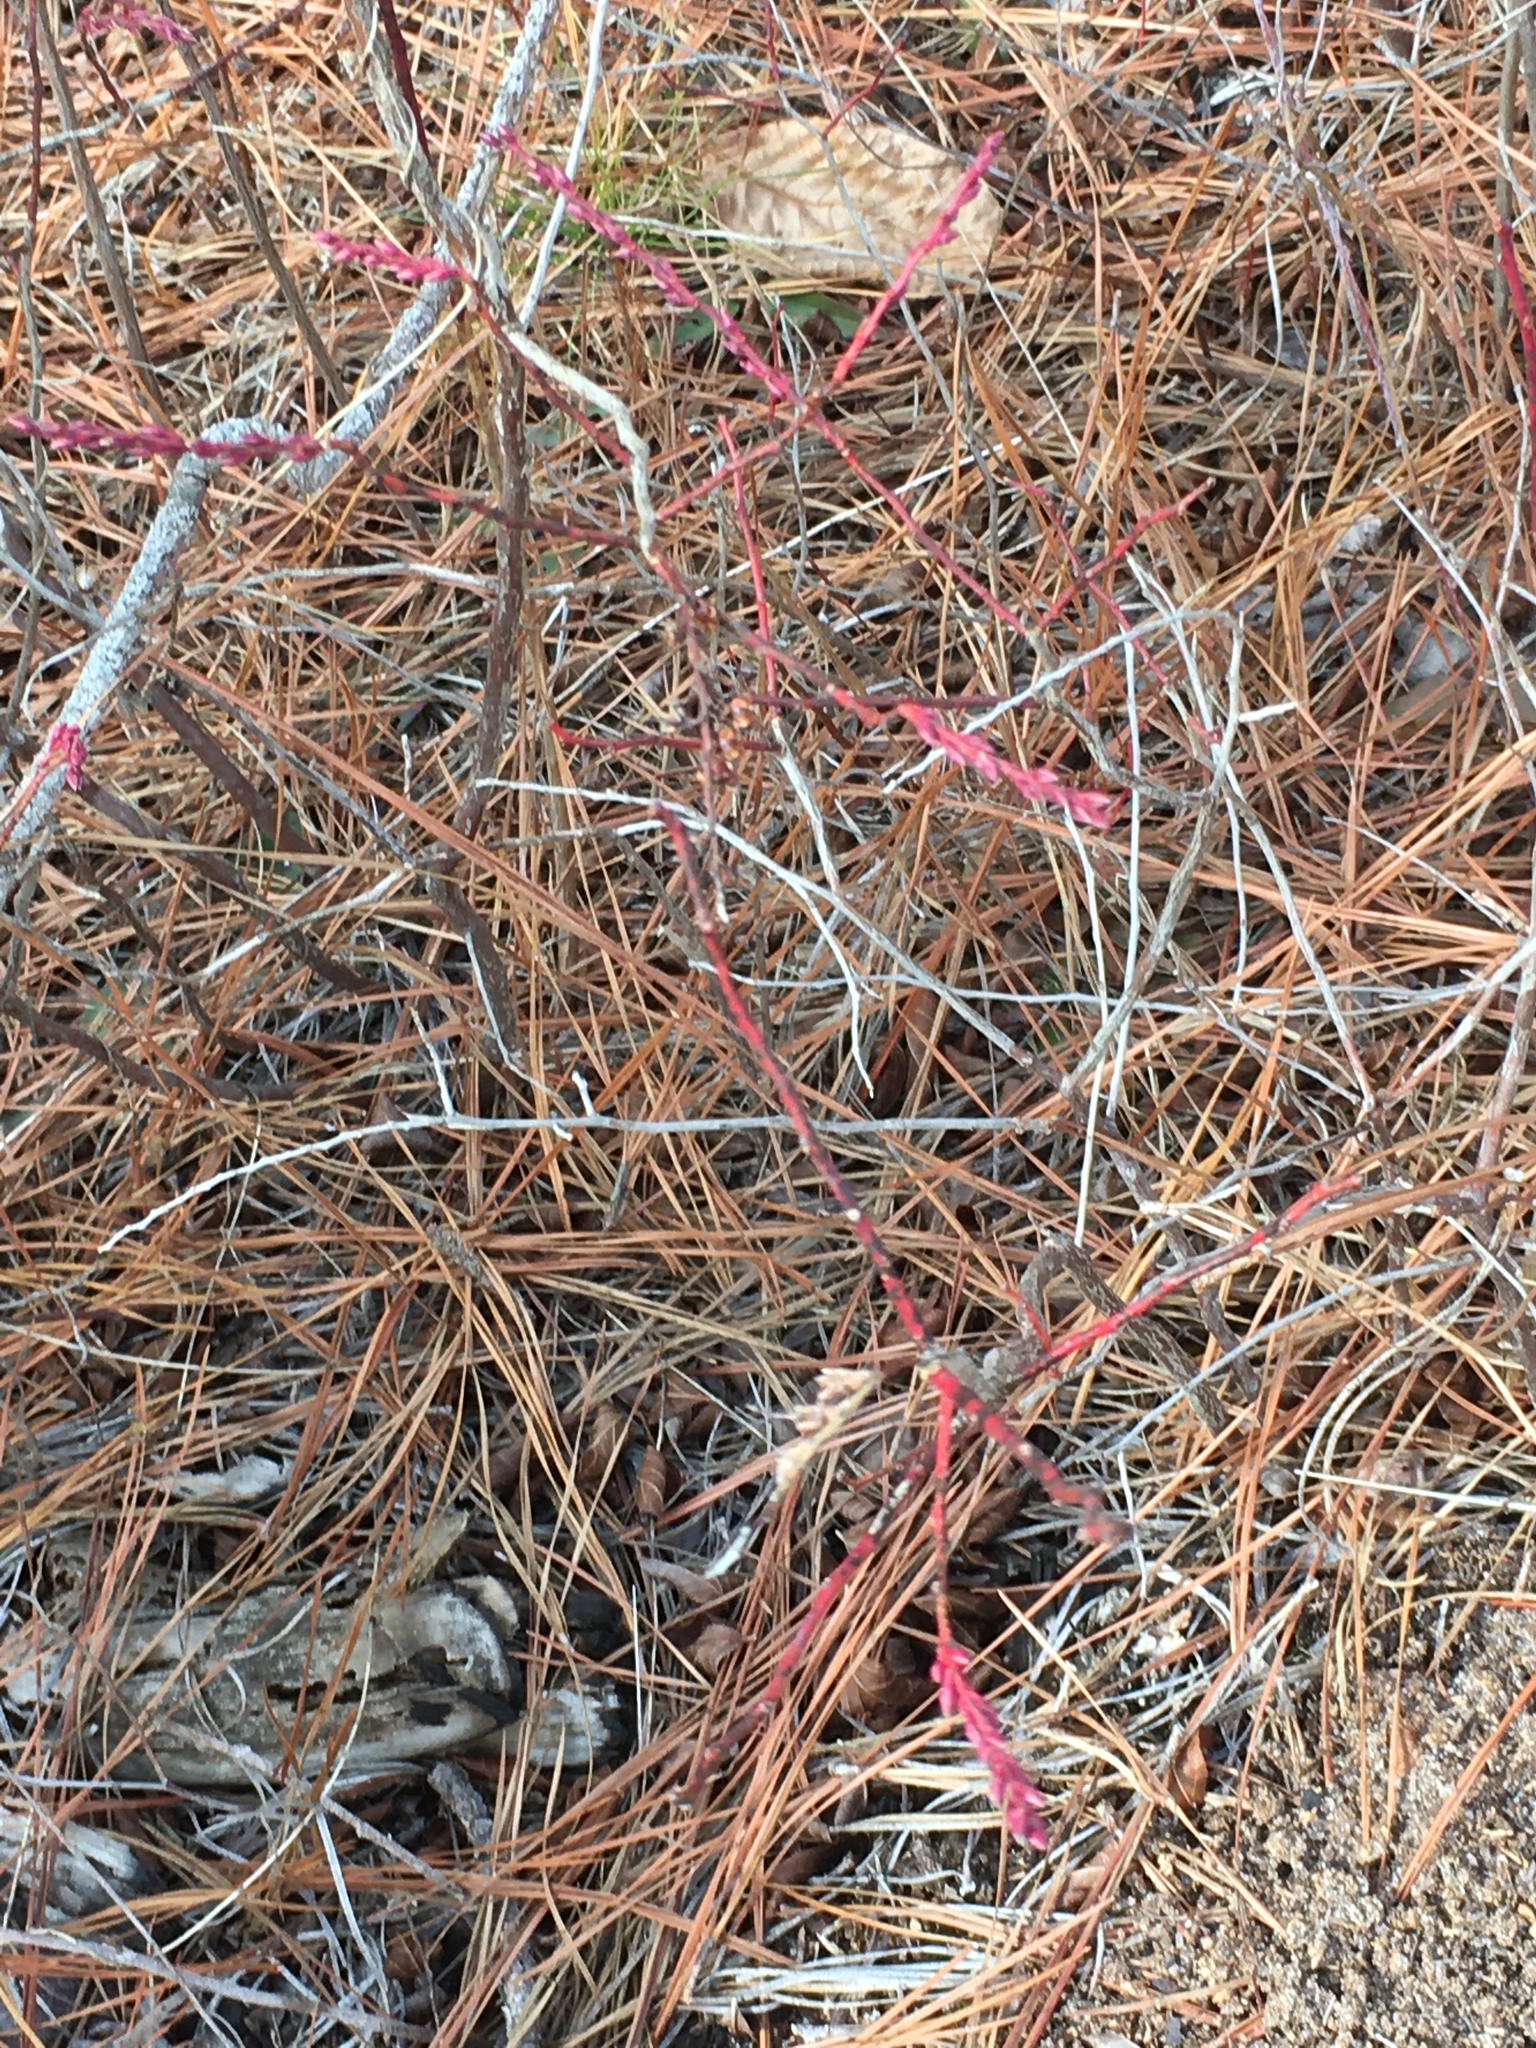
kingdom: Plantae
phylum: Tracheophyta
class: Magnoliopsida
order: Ericales
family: Ericaceae
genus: Eubotrys
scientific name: Eubotrys racemosa
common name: Fetterbush
